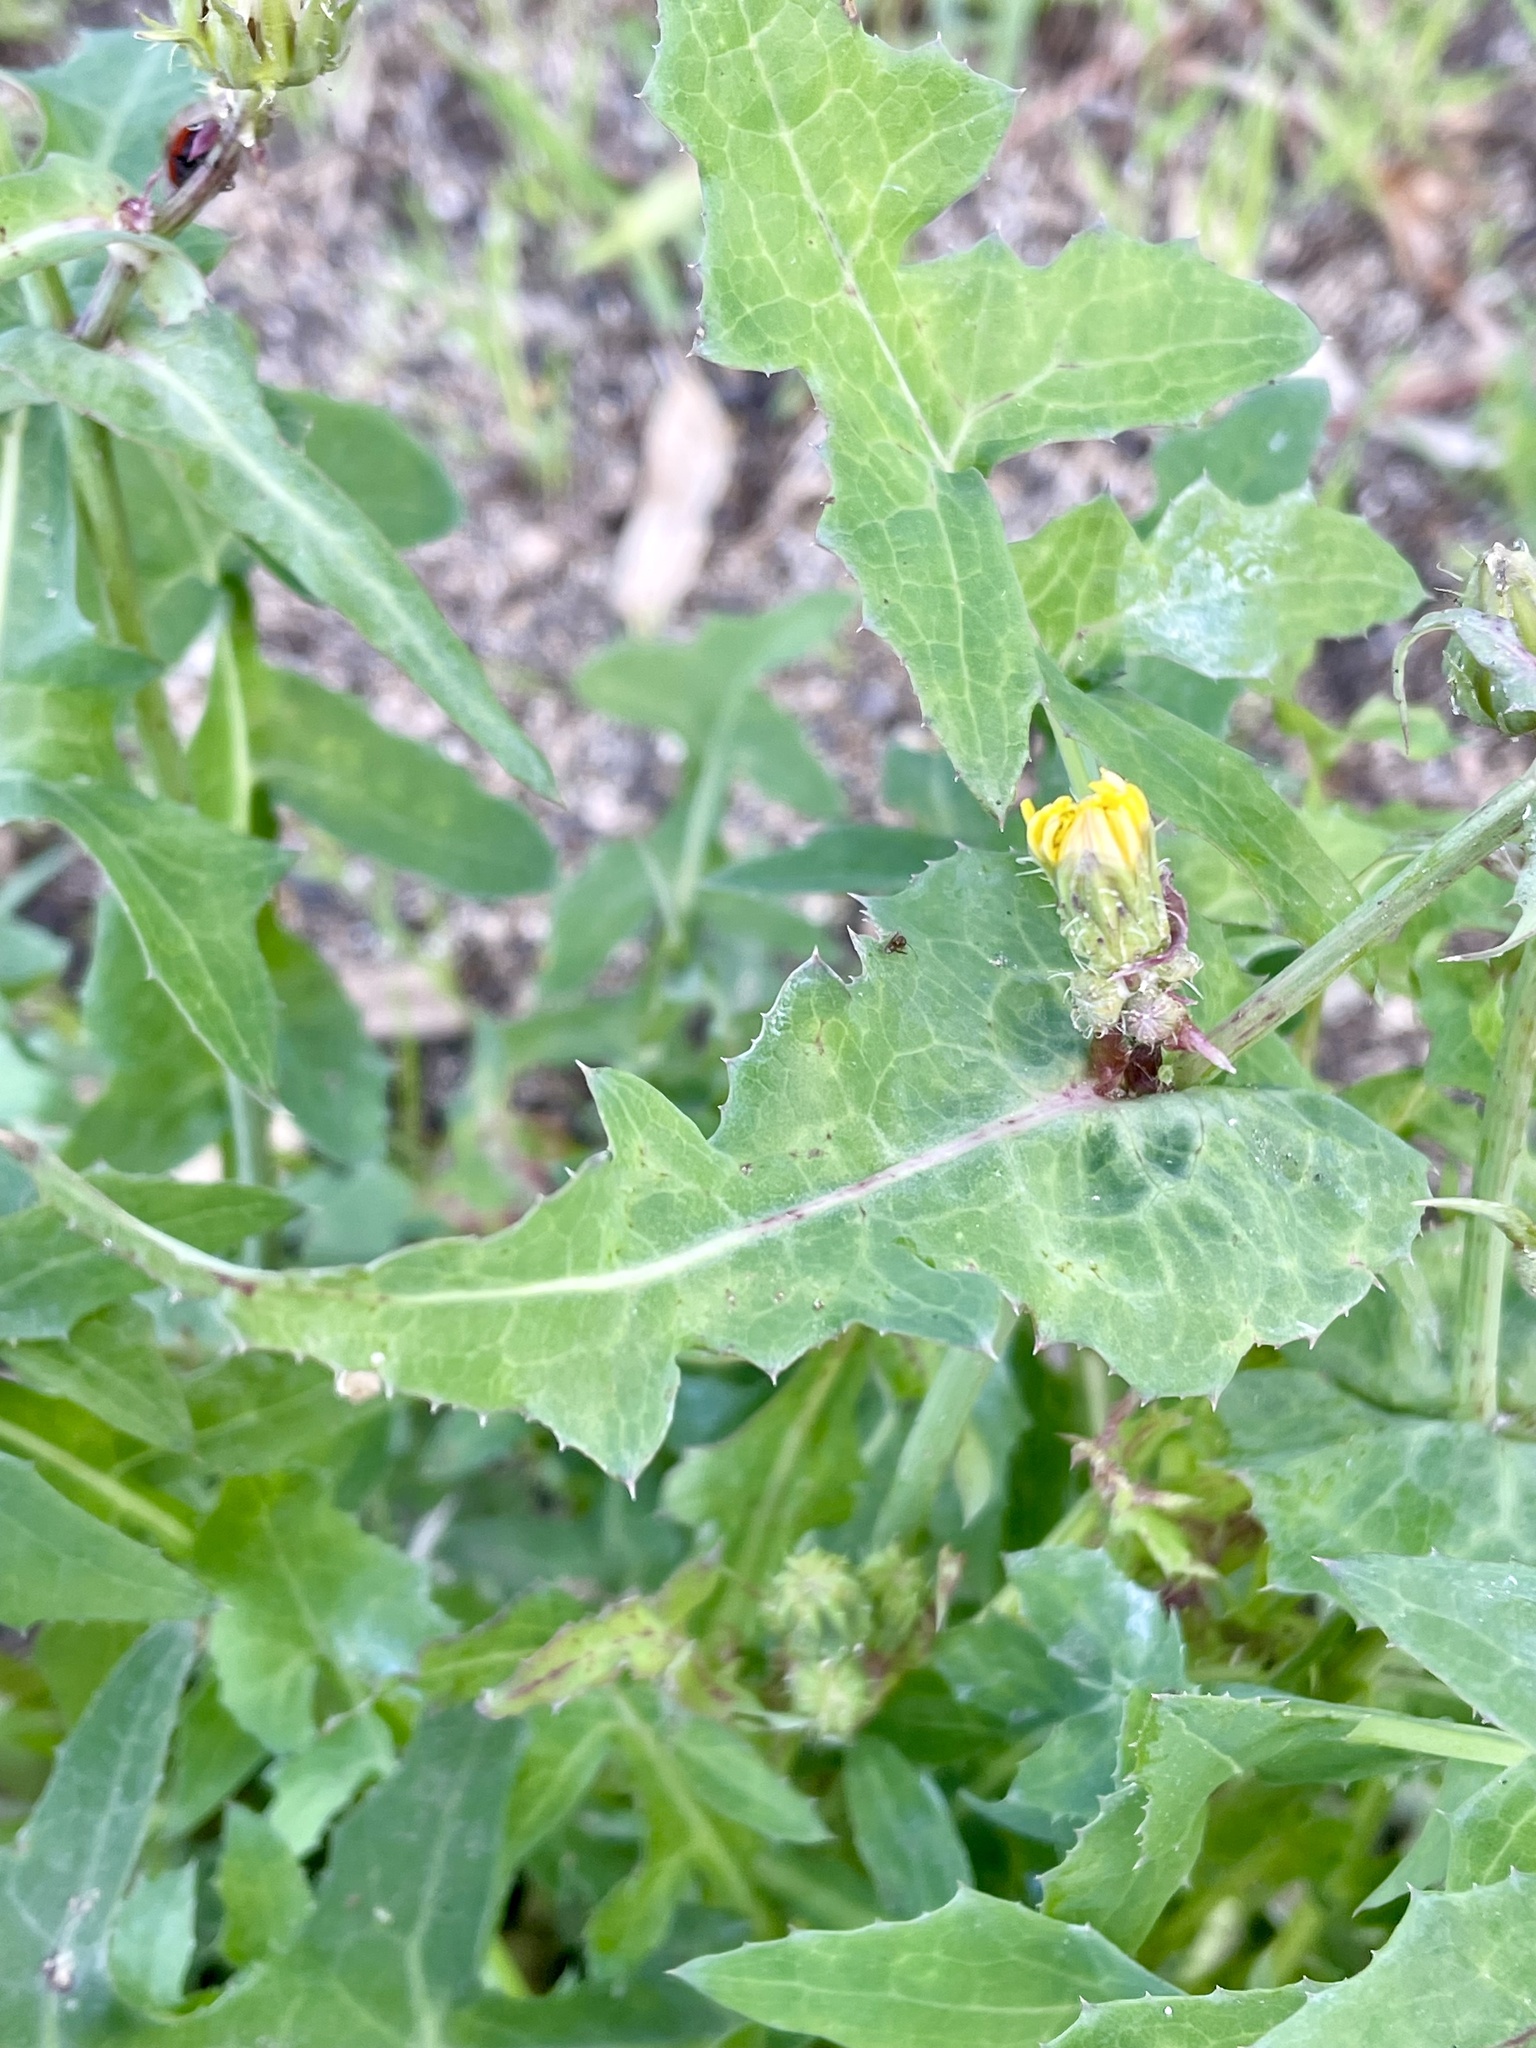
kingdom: Plantae
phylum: Tracheophyta
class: Magnoliopsida
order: Asterales
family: Asteraceae
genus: Sonchus
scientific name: Sonchus oleraceus
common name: Common sowthistle
